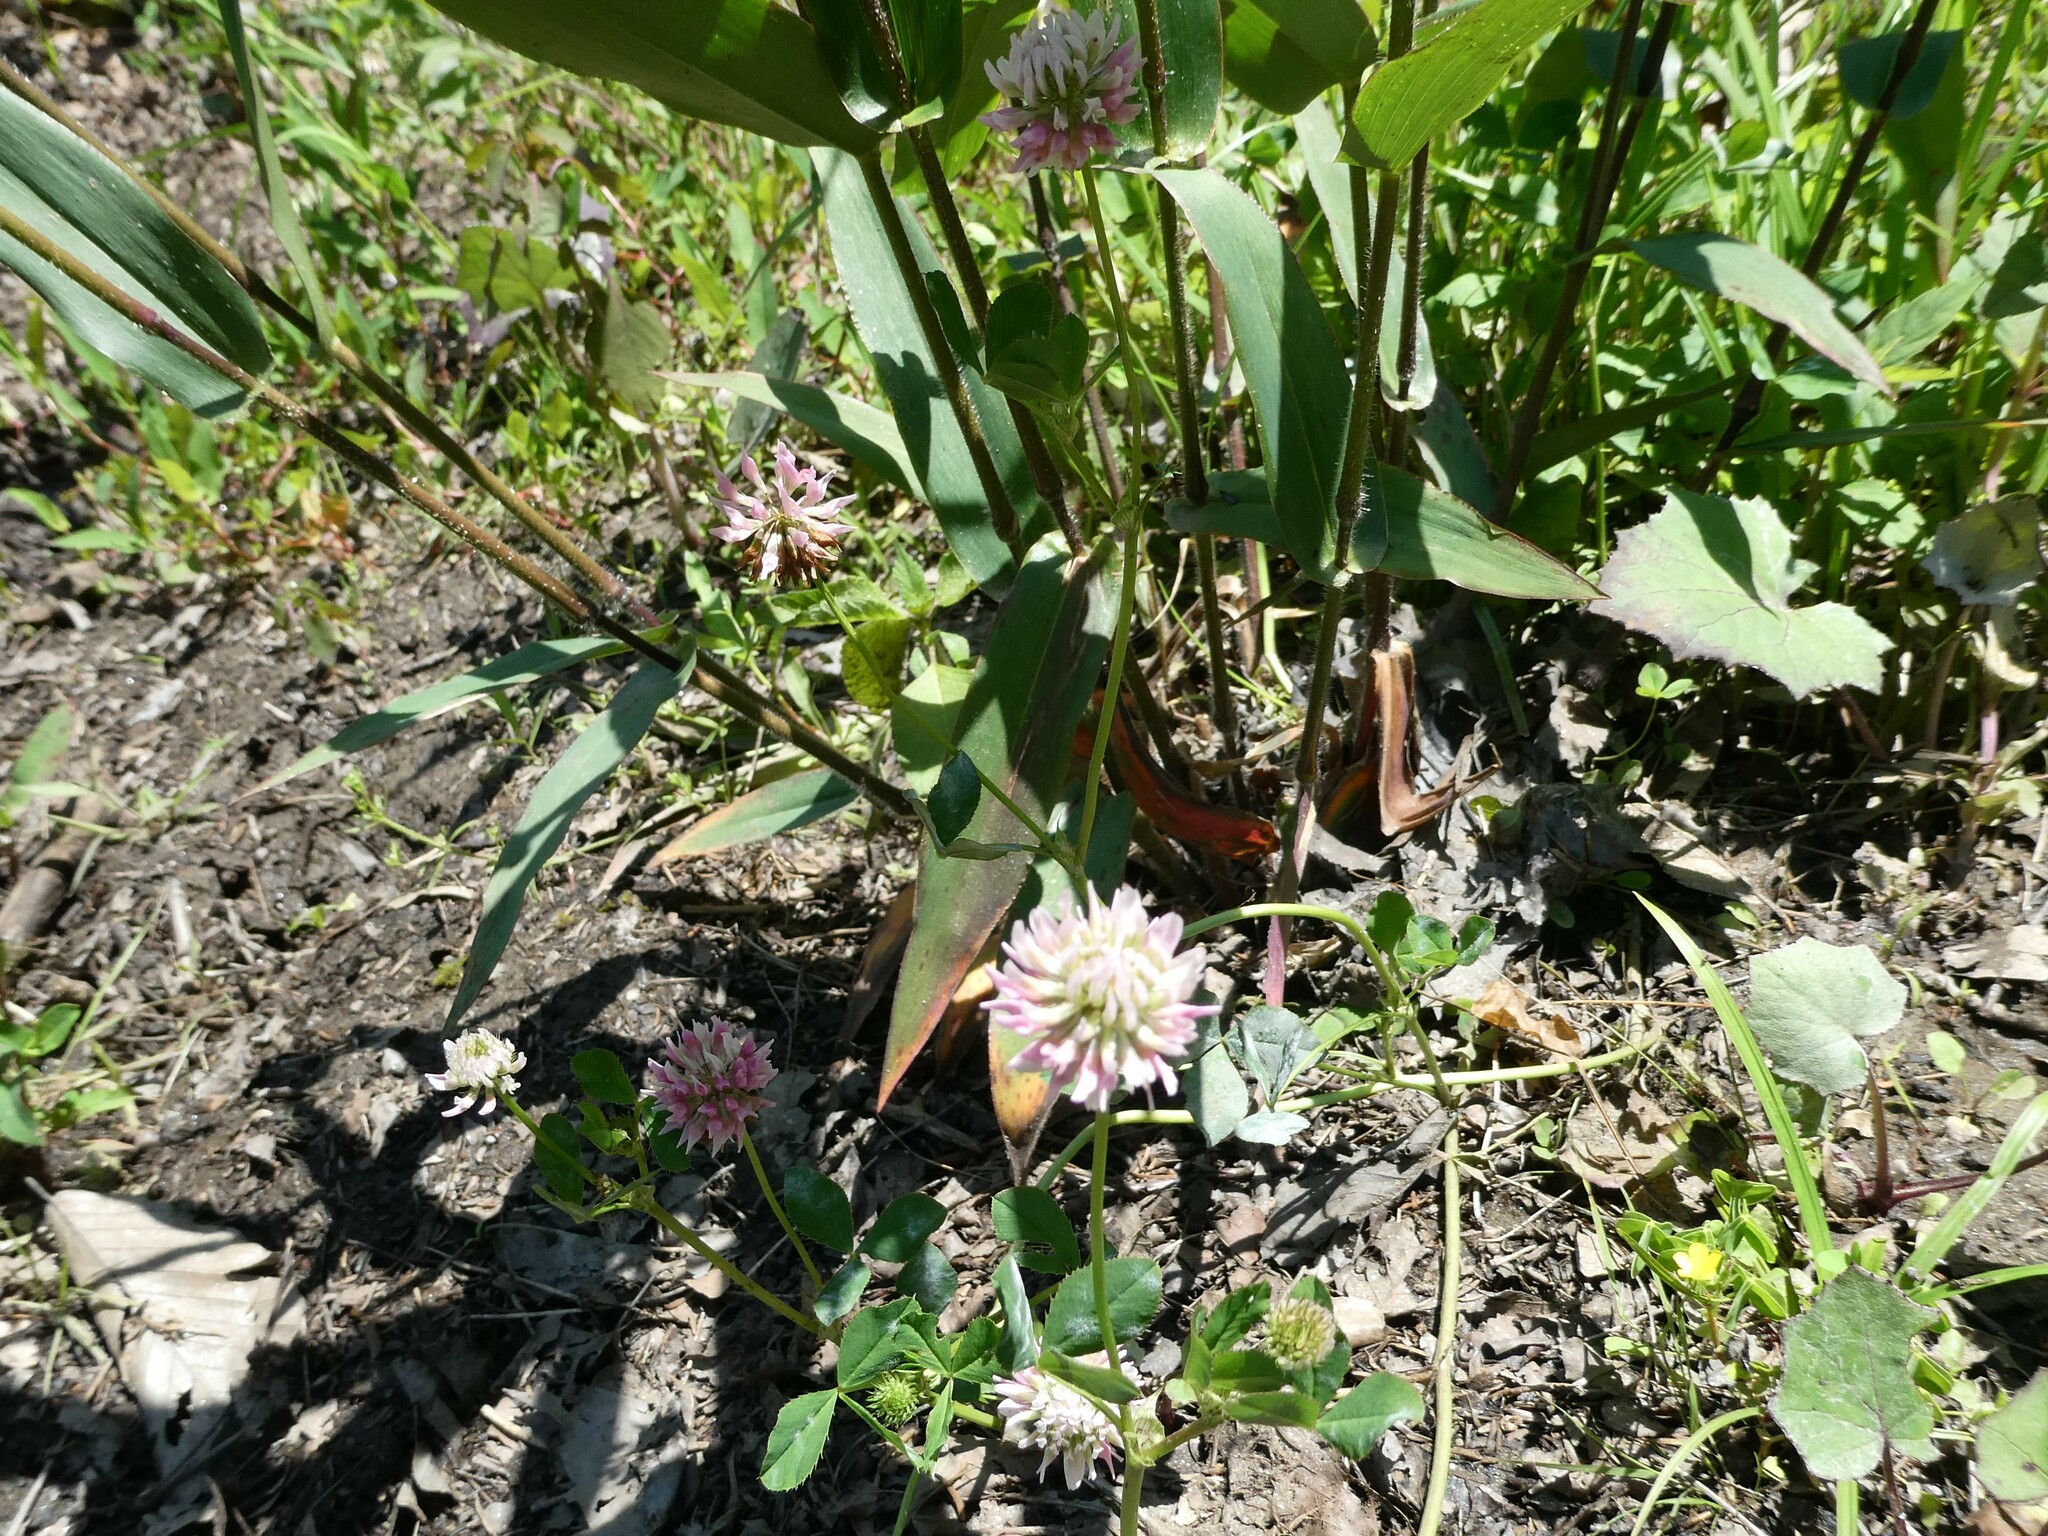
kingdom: Plantae
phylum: Tracheophyta
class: Magnoliopsida
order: Fabales
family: Fabaceae
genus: Trifolium
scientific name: Trifolium hybridum
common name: Alsike clover
